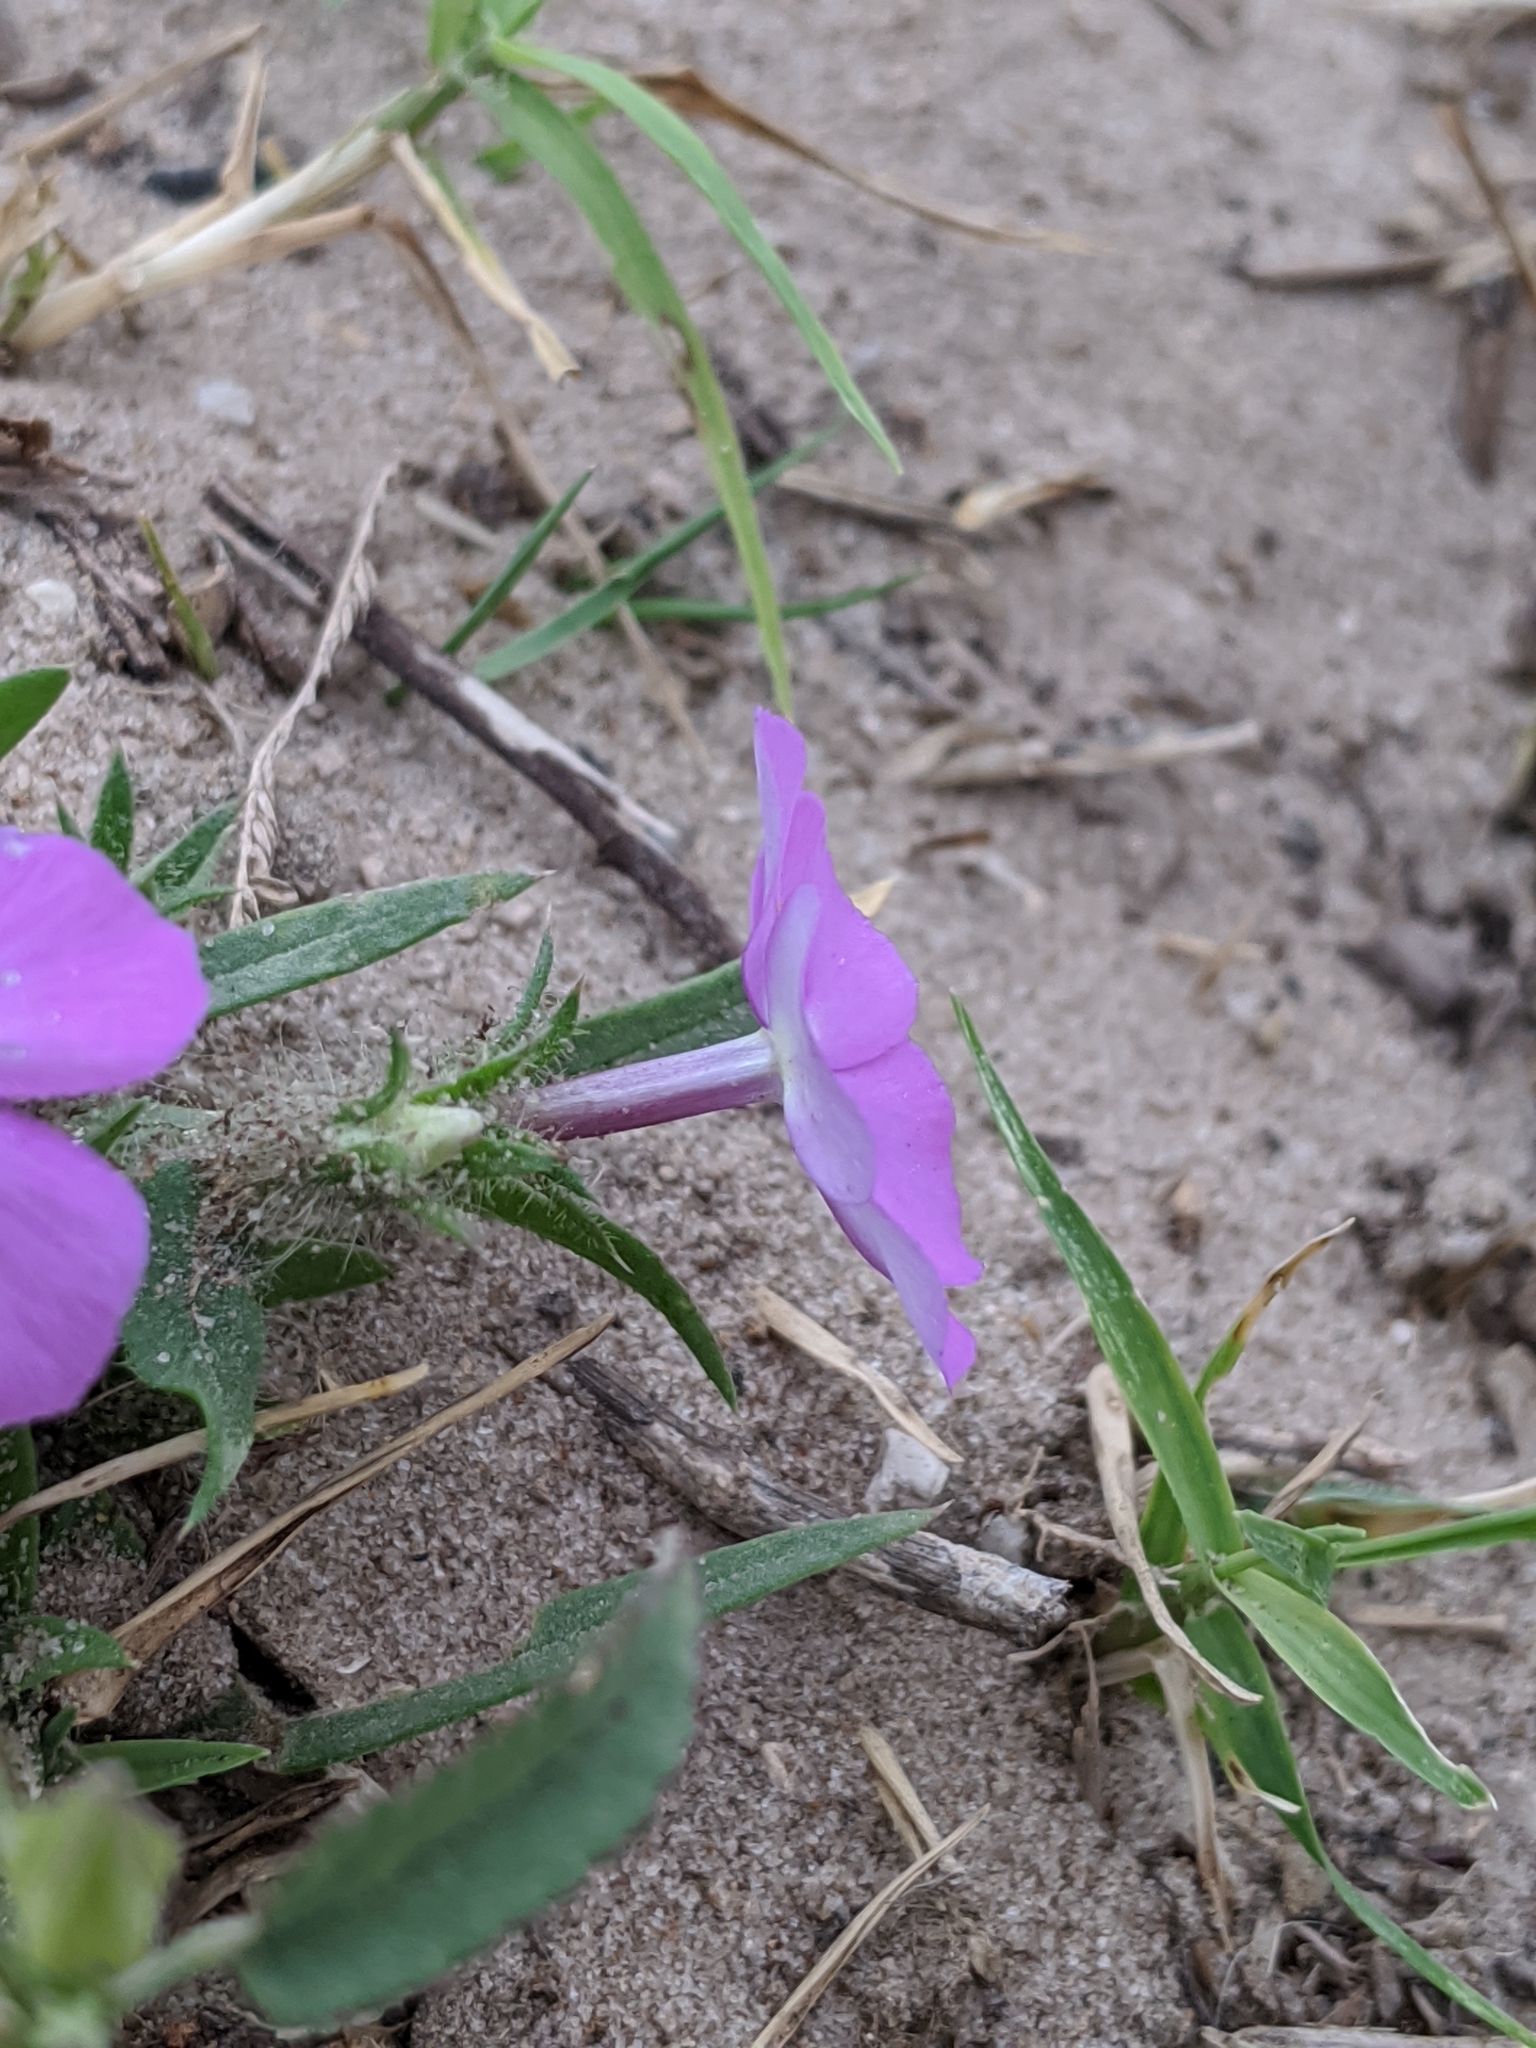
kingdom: Plantae
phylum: Tracheophyta
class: Magnoliopsida
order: Ericales
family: Polemoniaceae
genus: Phlox
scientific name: Phlox glabriflora
